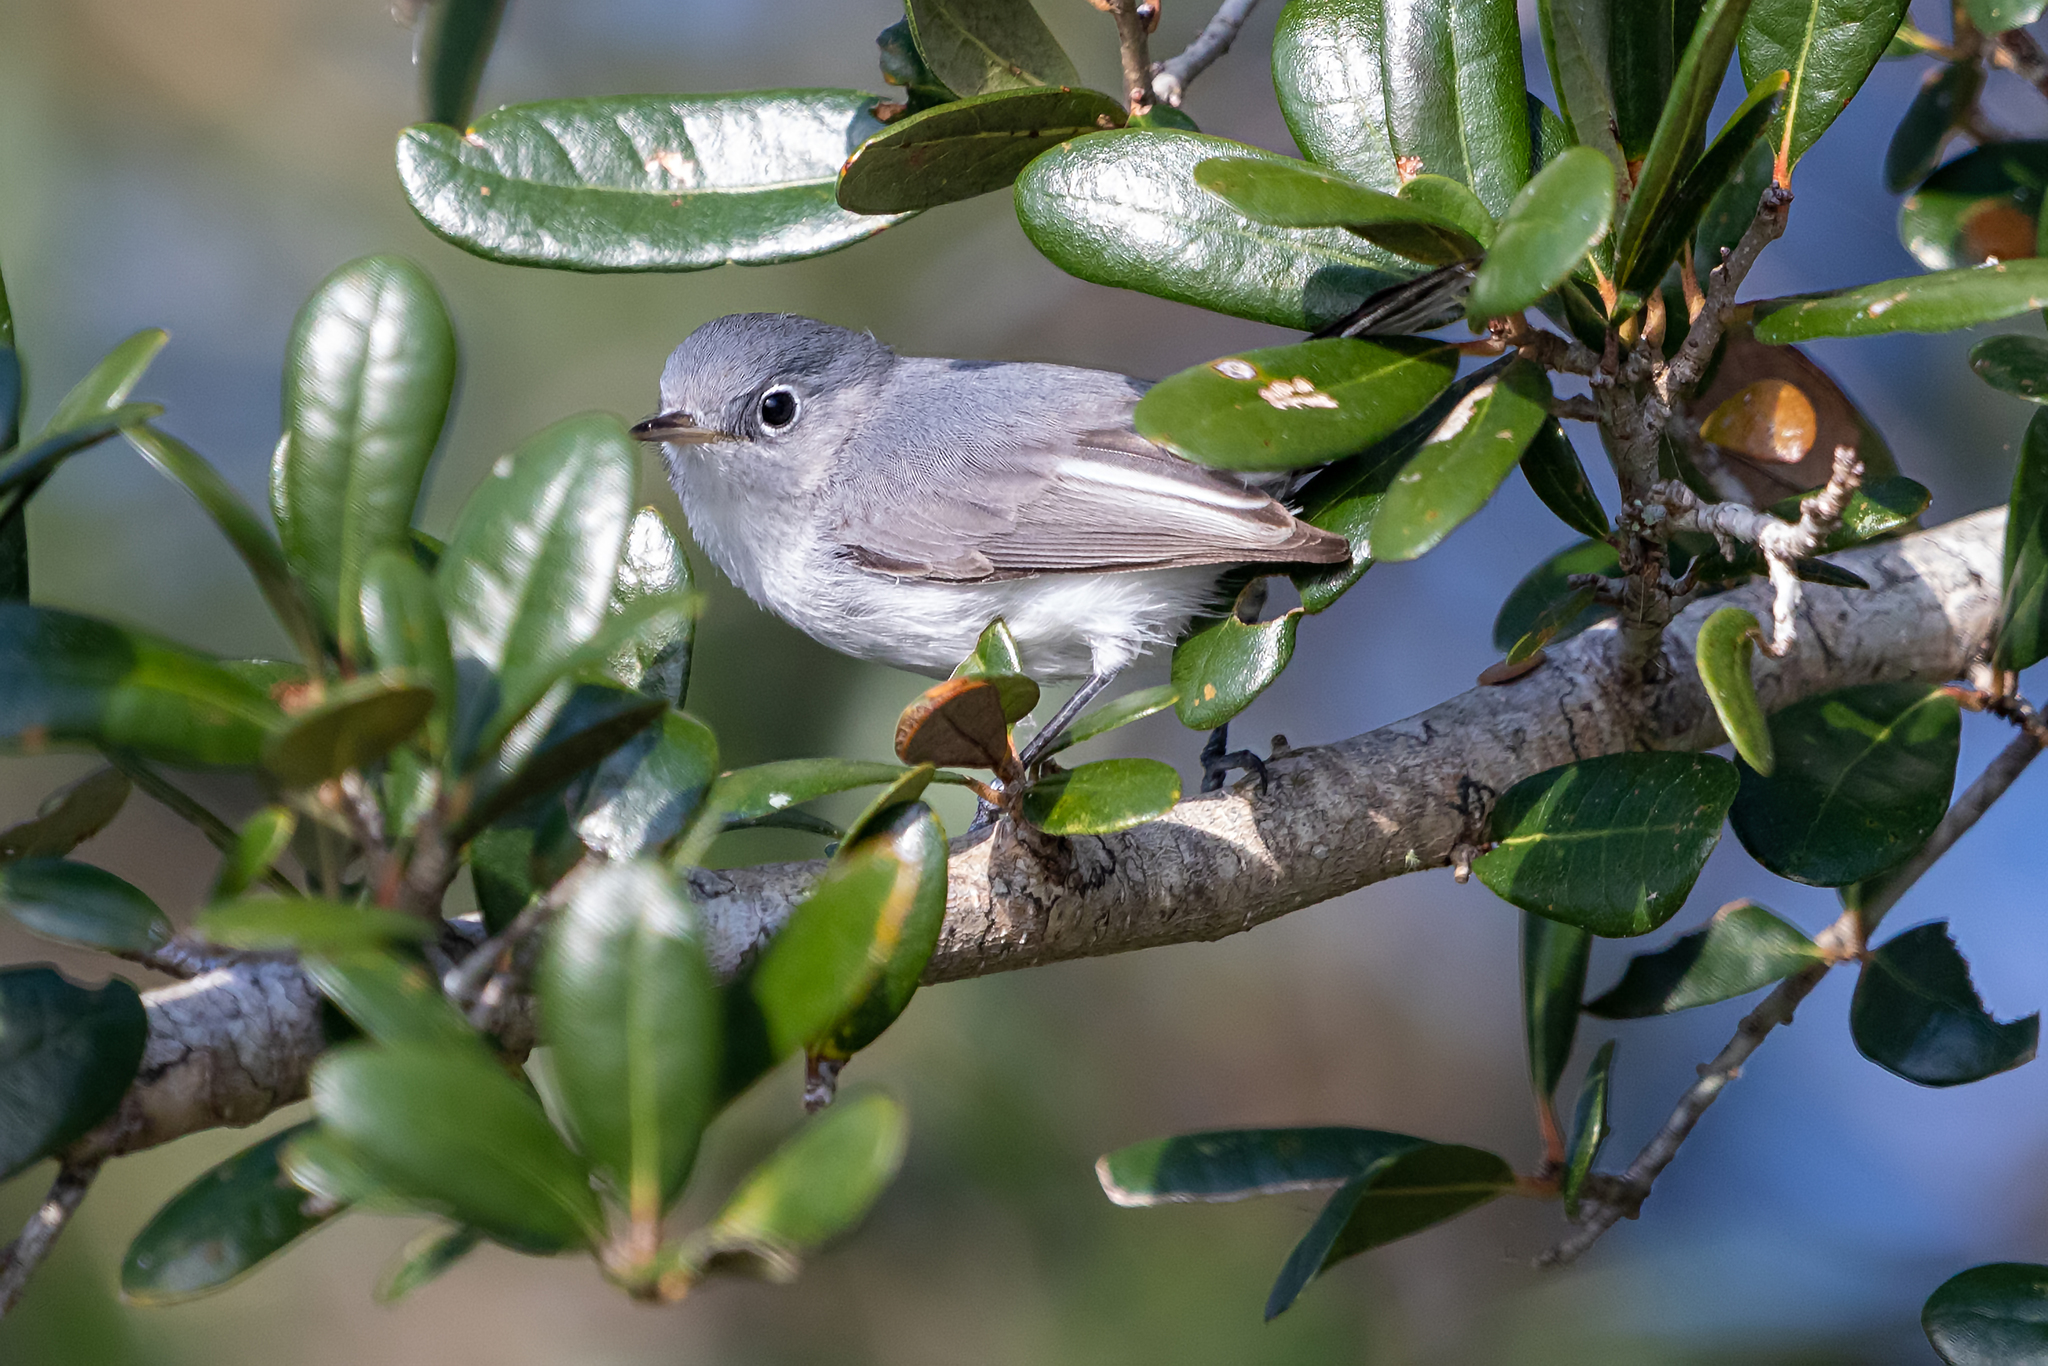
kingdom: Animalia
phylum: Chordata
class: Aves
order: Passeriformes
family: Polioptilidae
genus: Polioptila
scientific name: Polioptila caerulea
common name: Blue-gray gnatcatcher
